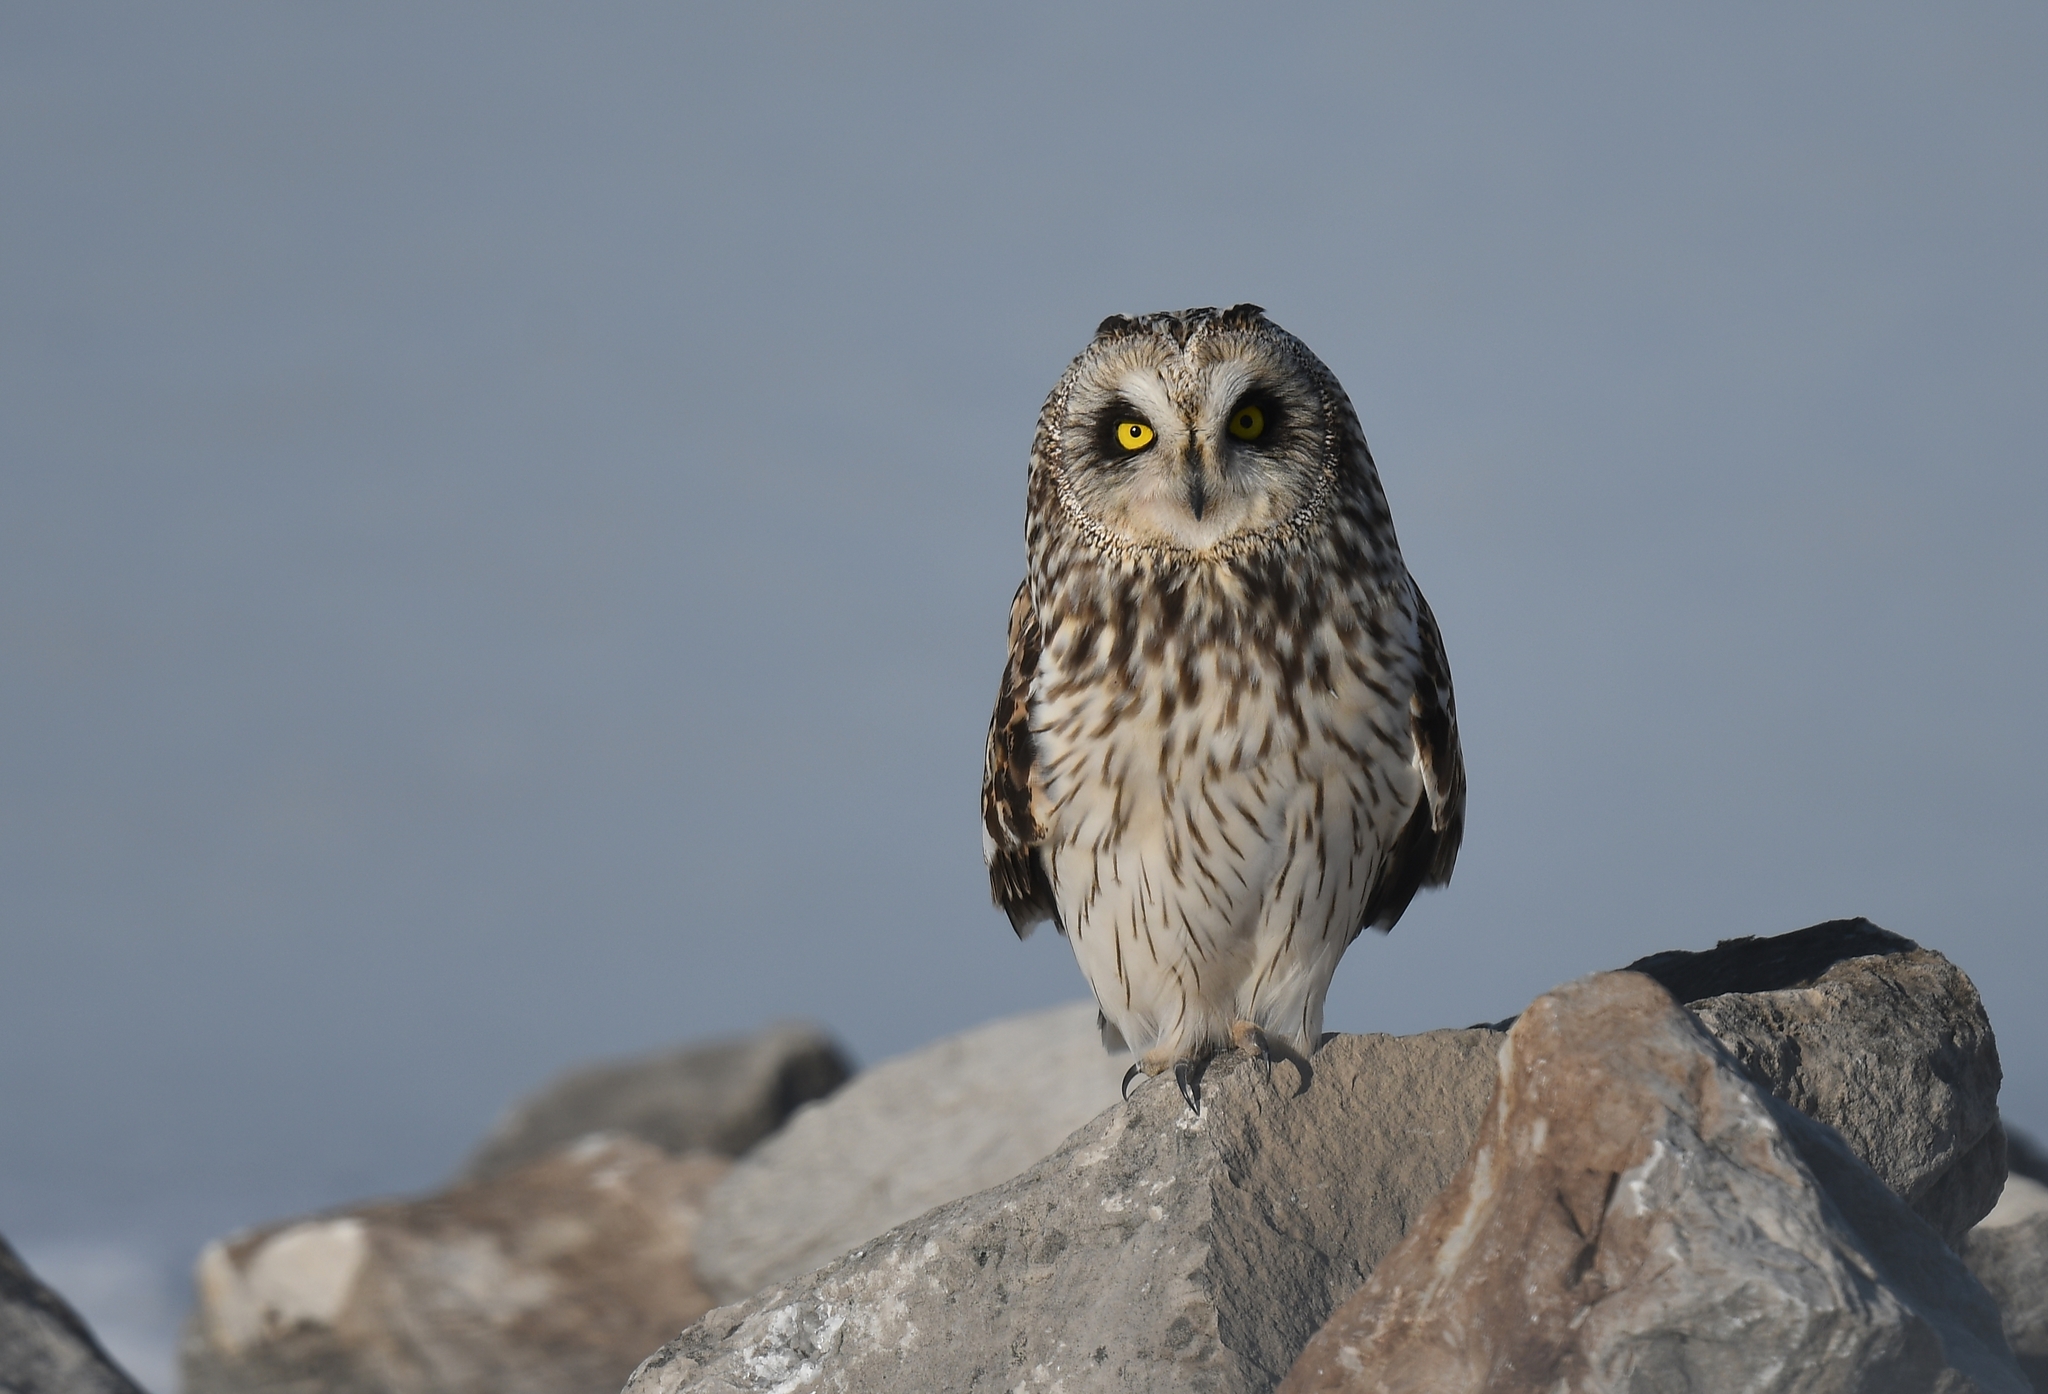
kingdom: Animalia
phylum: Chordata
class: Aves
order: Strigiformes
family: Strigidae
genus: Asio
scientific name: Asio flammeus
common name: Short-eared owl
